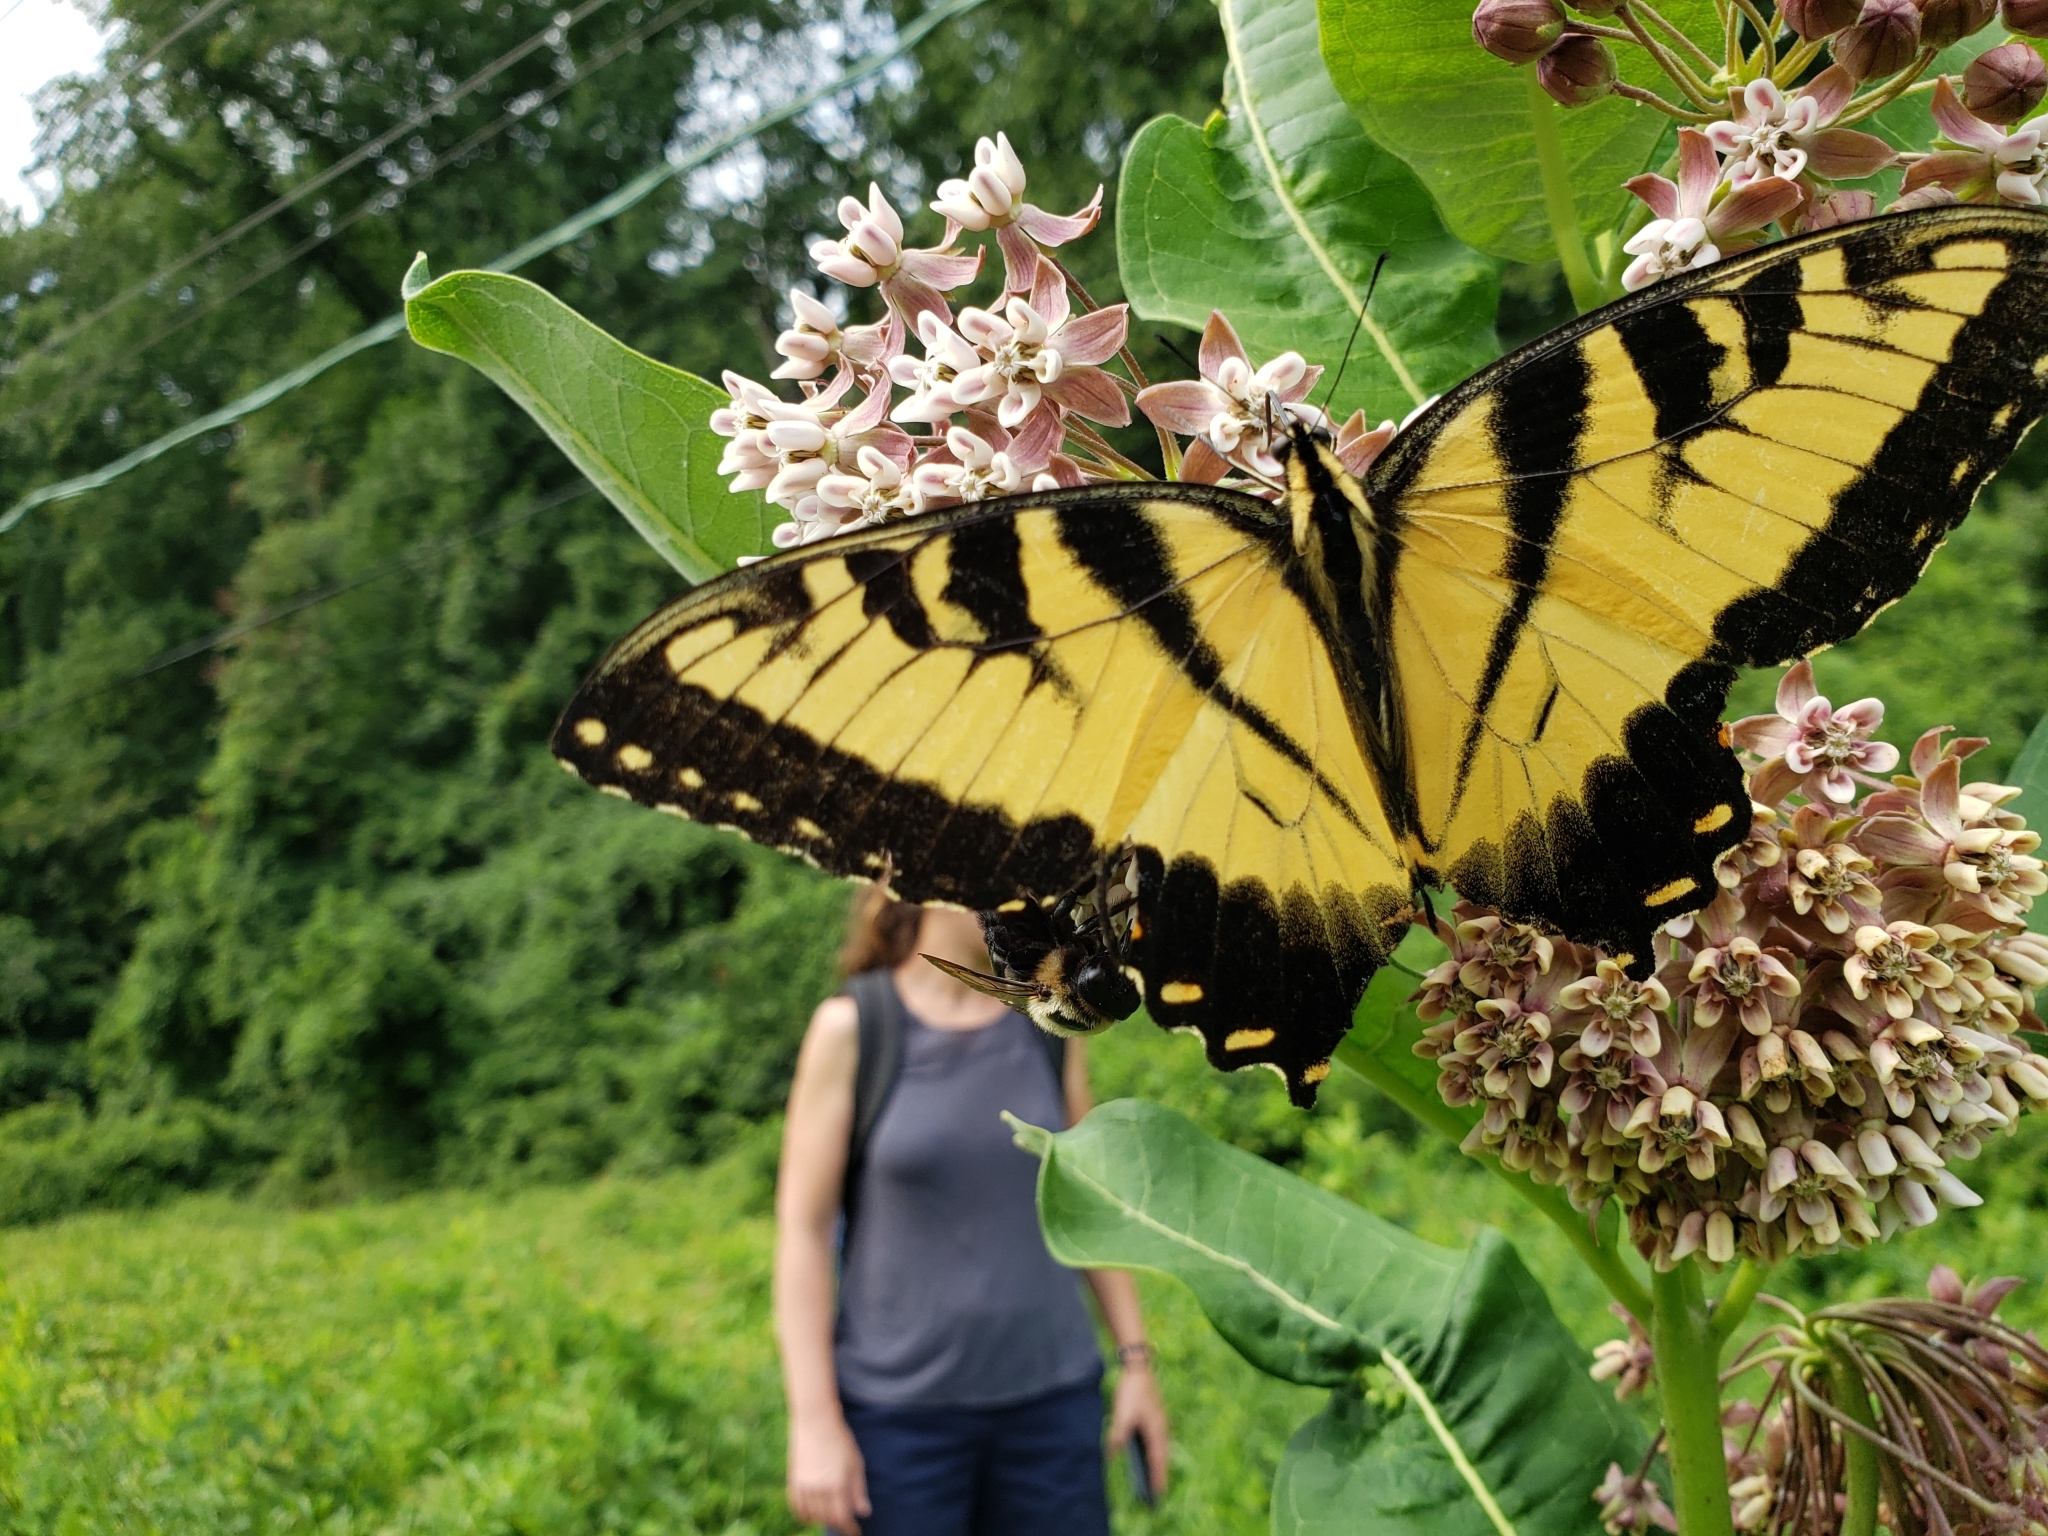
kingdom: Animalia
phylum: Arthropoda
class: Insecta
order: Lepidoptera
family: Papilionidae
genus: Papilio
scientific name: Papilio glaucus
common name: Tiger swallowtail
